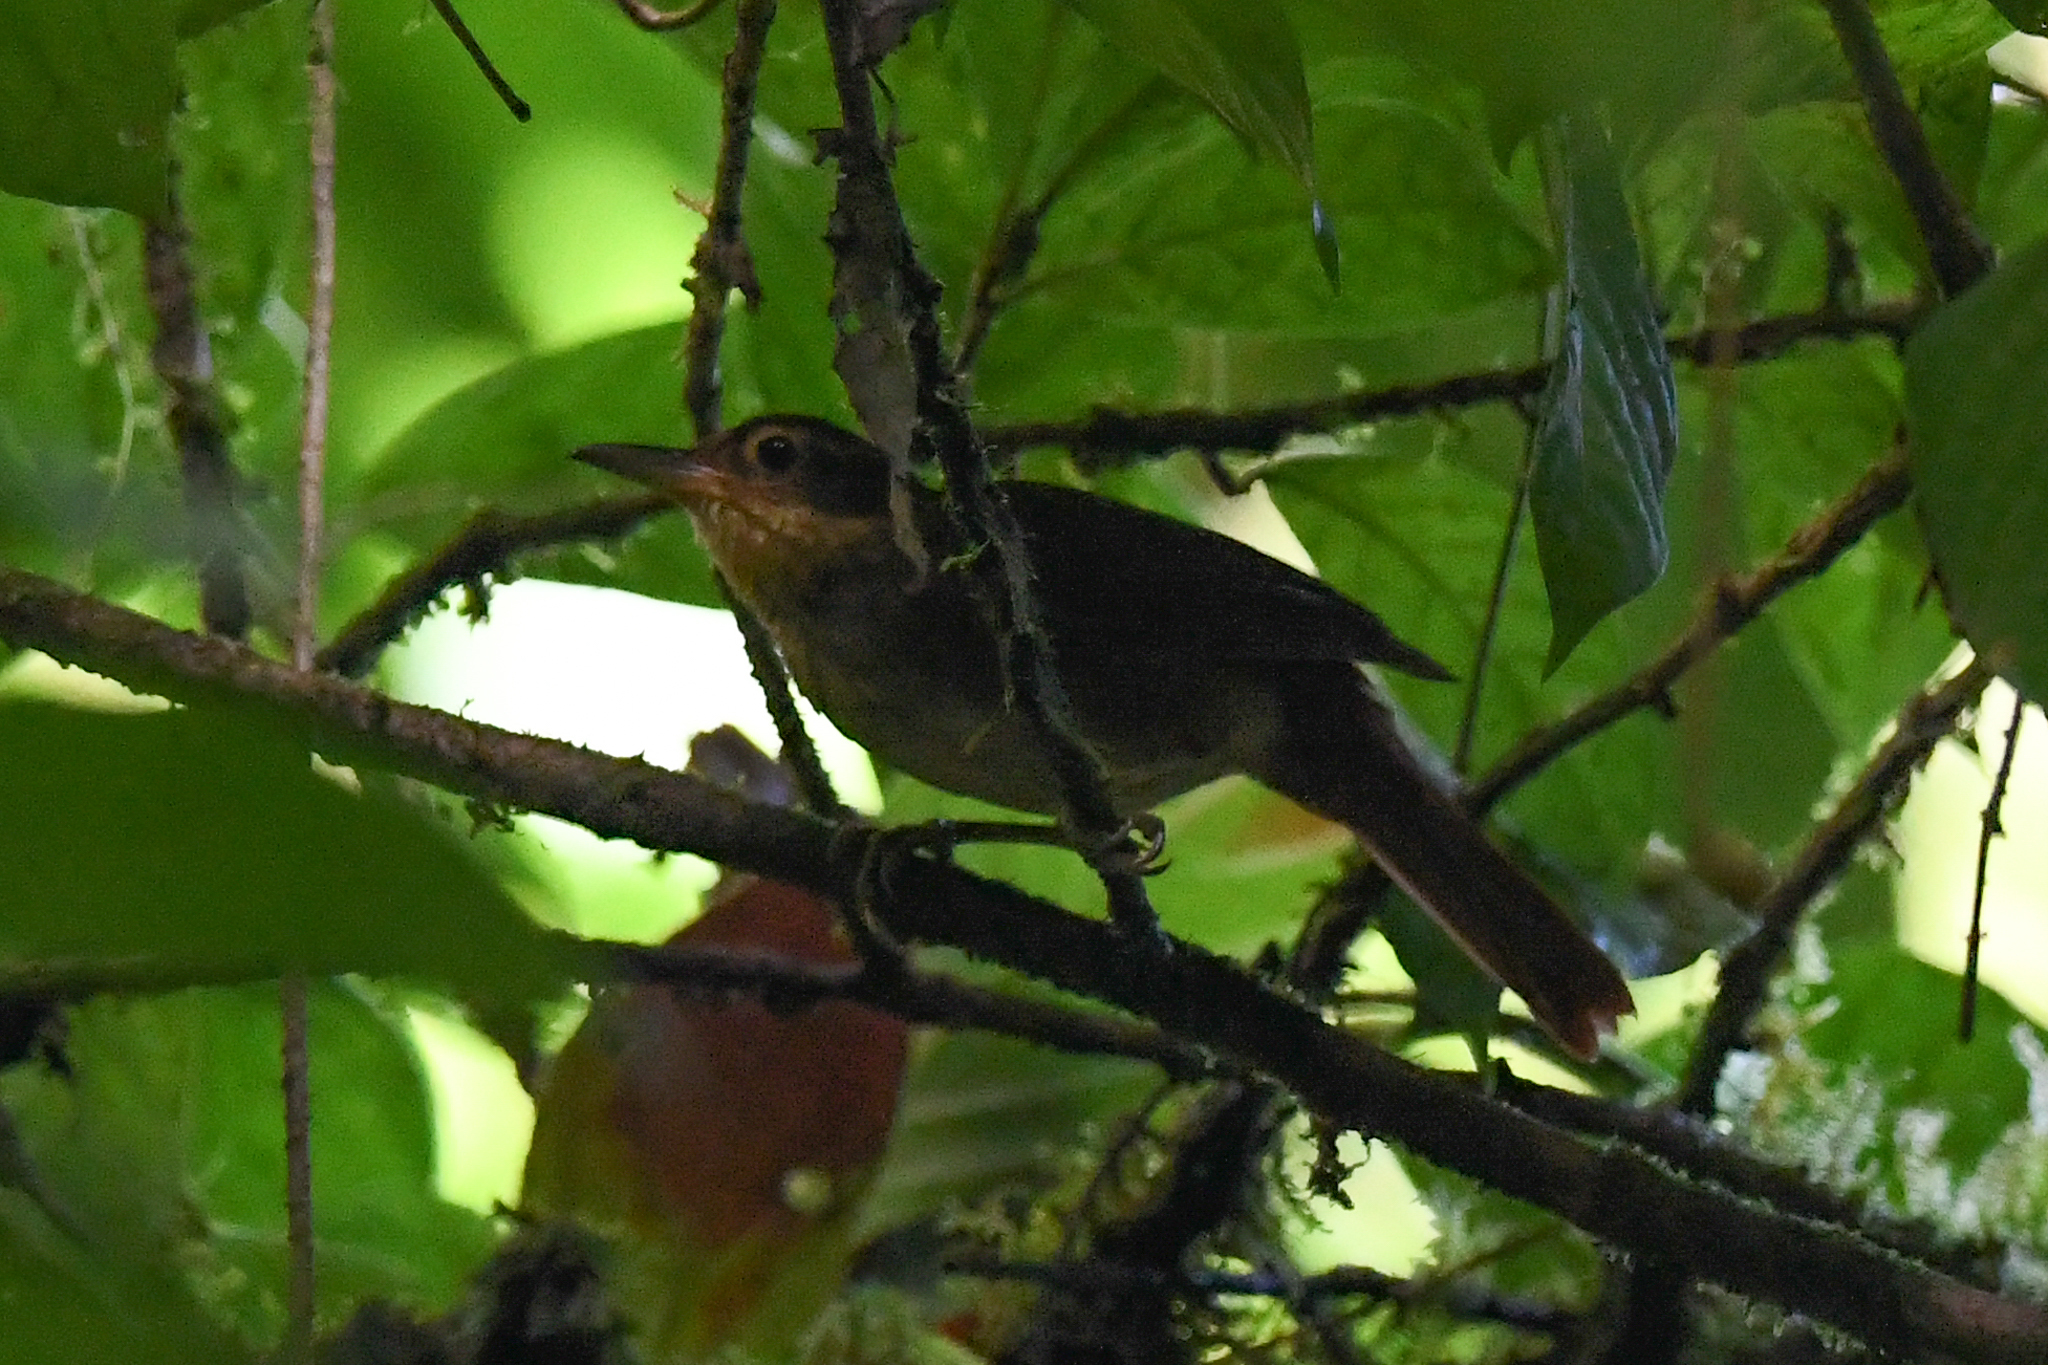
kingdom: Animalia
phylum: Chordata
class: Aves
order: Passeriformes
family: Furnariidae
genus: Automolus
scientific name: Automolus ochrolaemus
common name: Buff-throated foliage-gleaner
